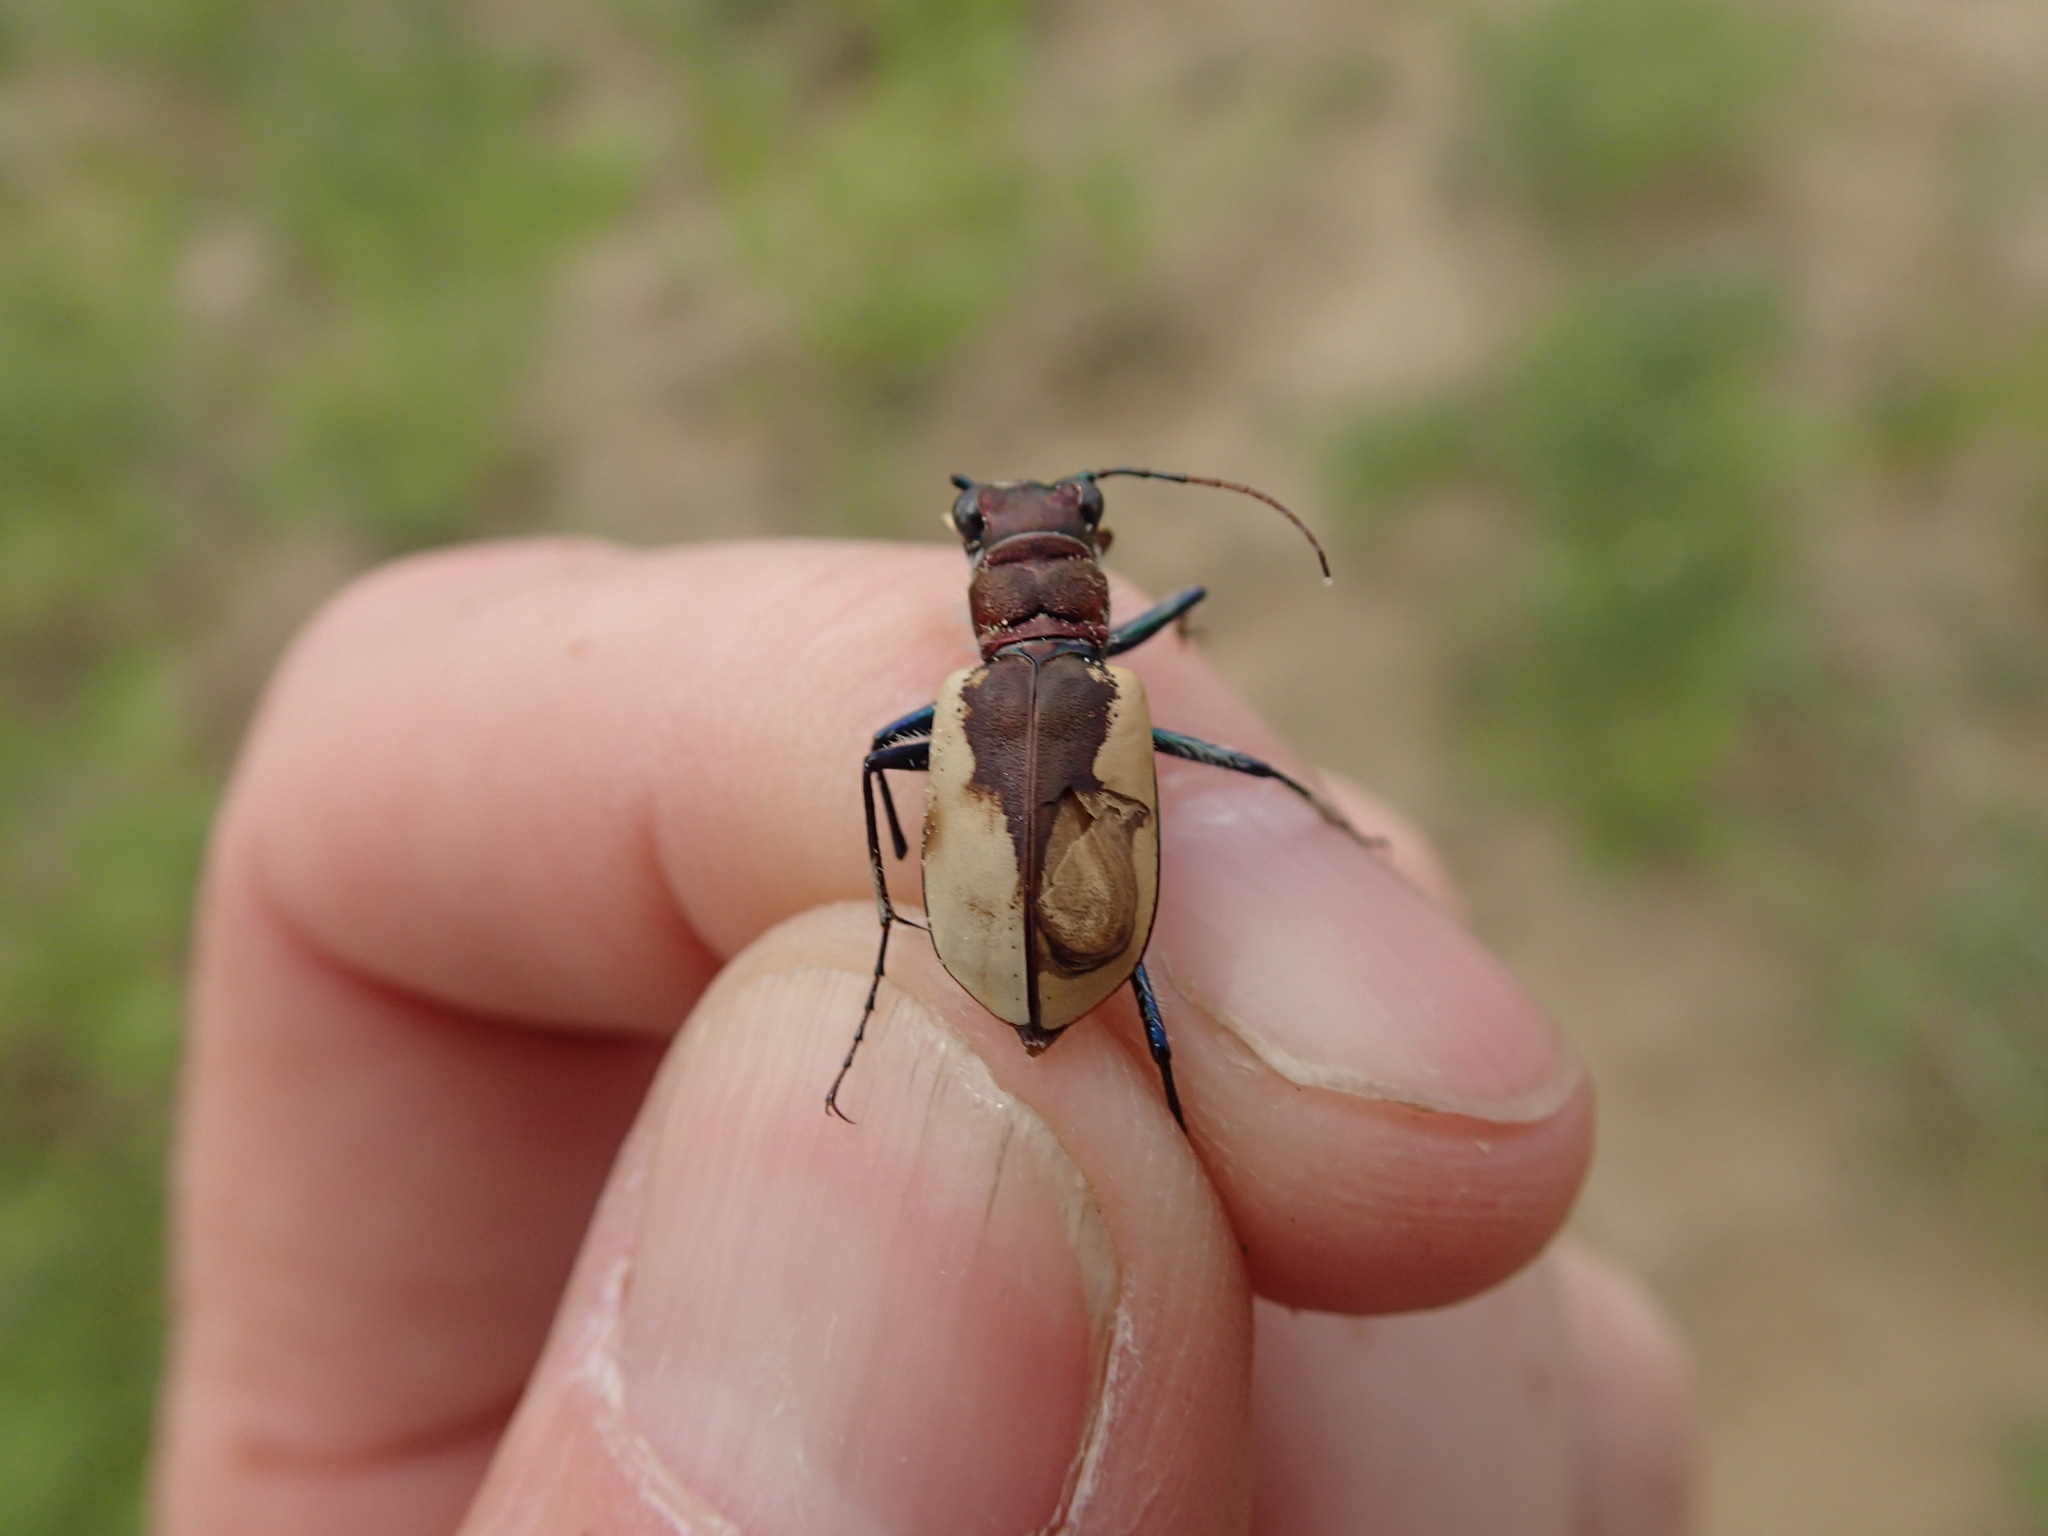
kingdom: Animalia
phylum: Arthropoda
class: Insecta
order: Coleoptera
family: Carabidae
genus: Cicindela
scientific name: Cicindela formosa
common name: Big sand tiger beetle
